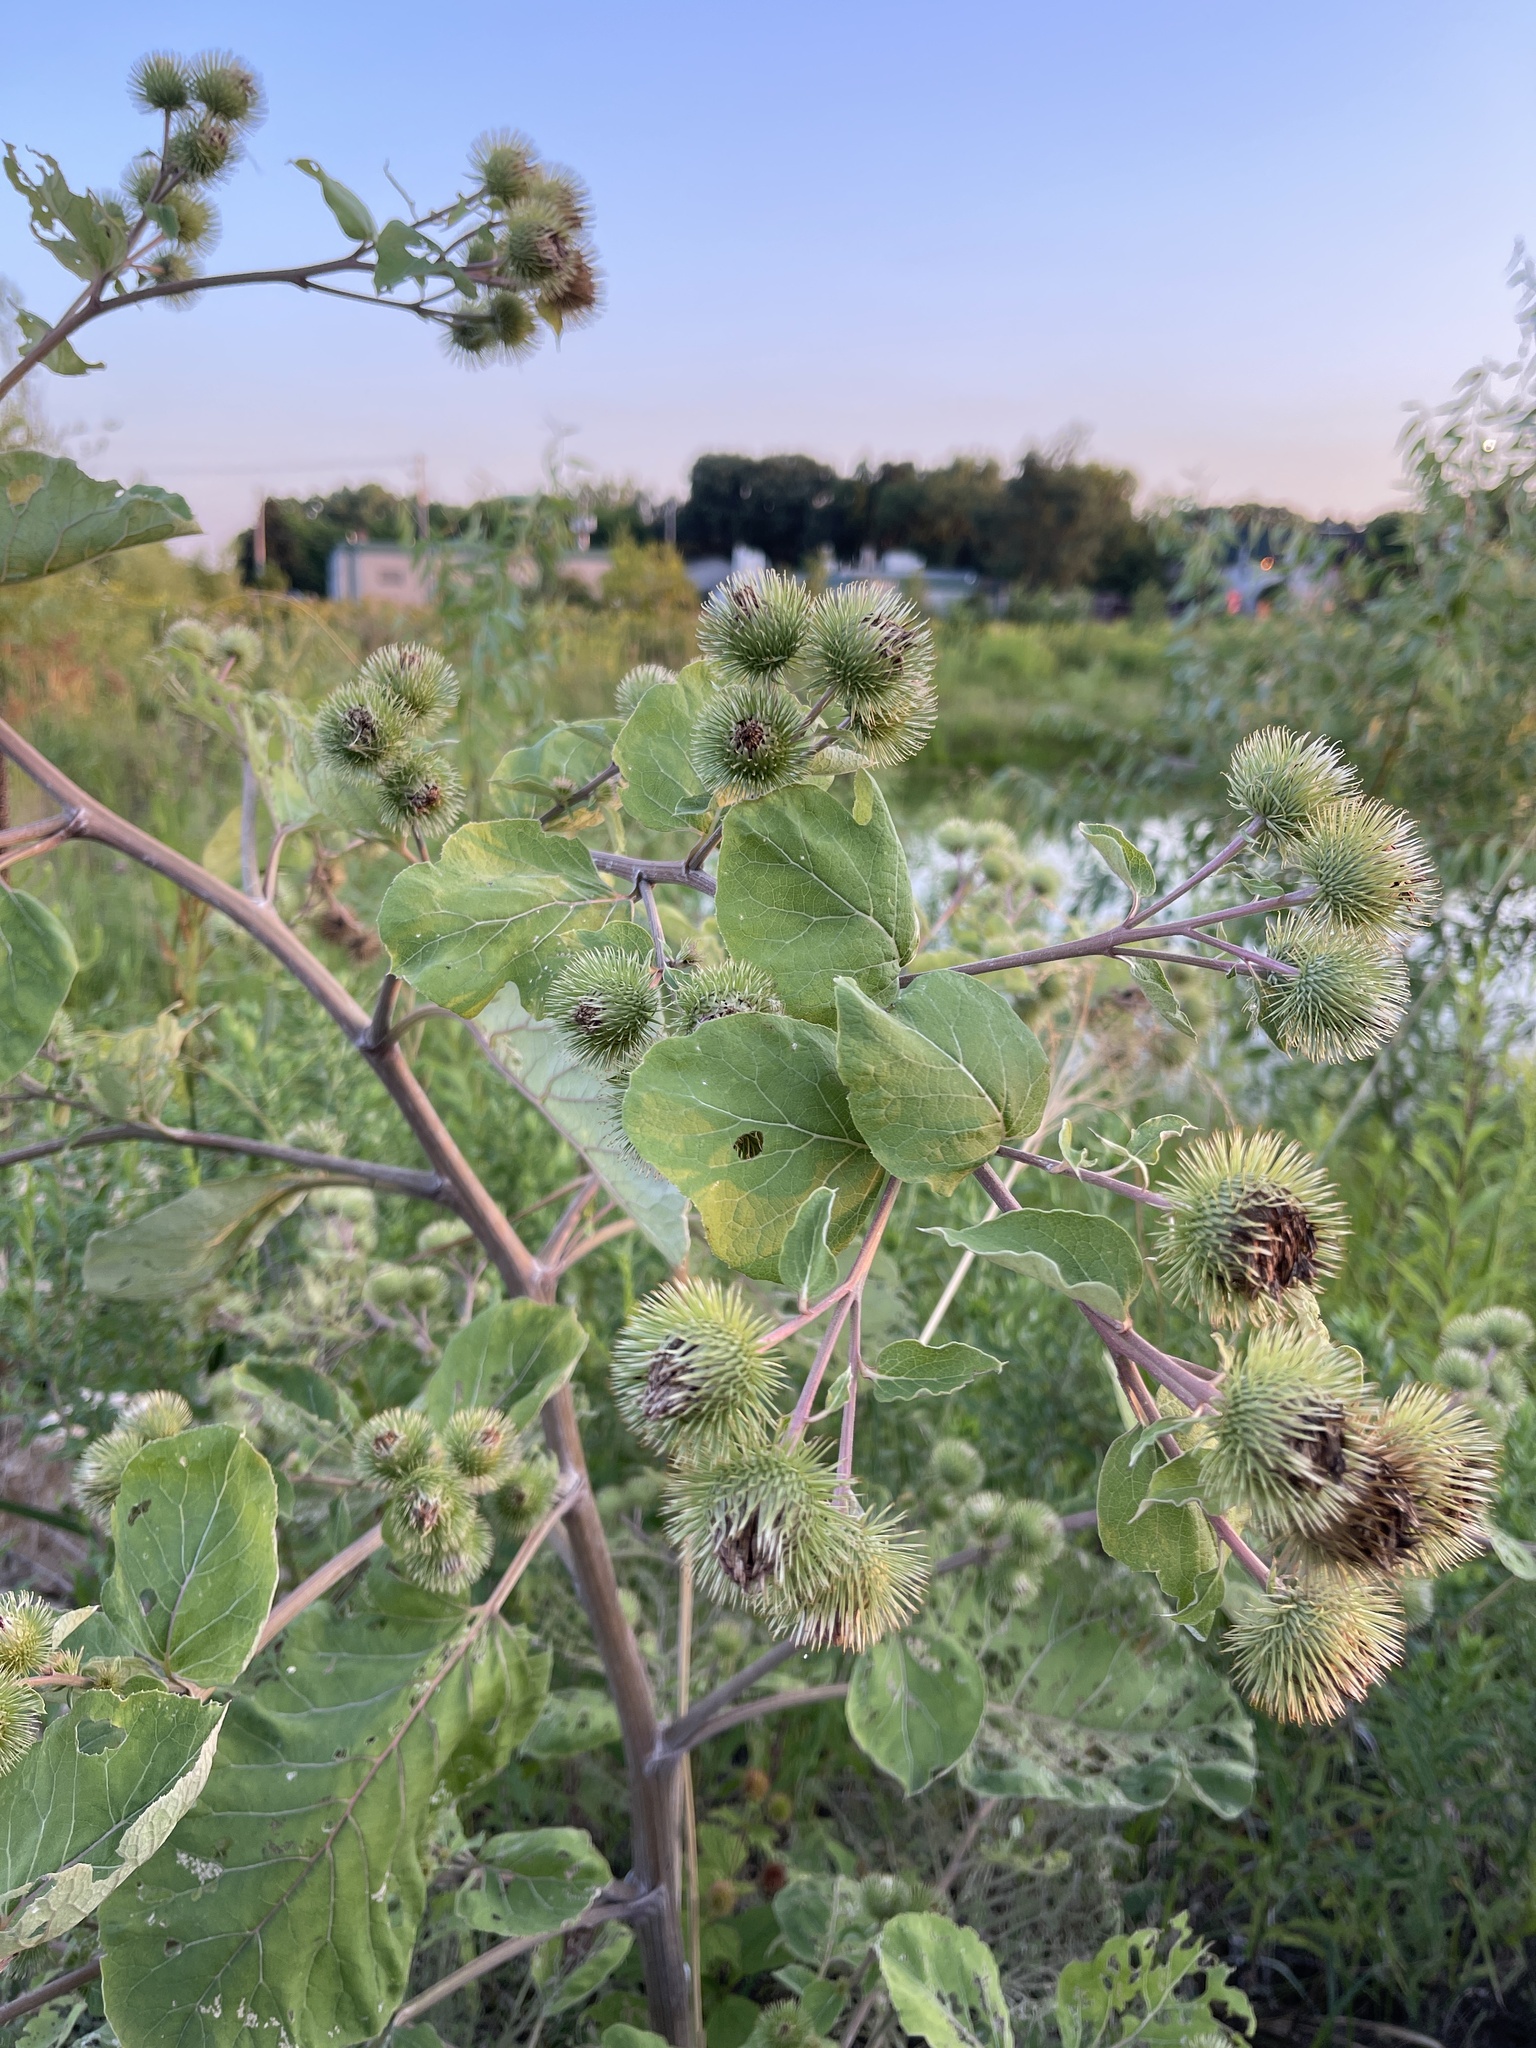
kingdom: Plantae
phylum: Tracheophyta
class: Magnoliopsida
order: Asterales
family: Asteraceae
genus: Arctium
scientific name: Arctium lappa
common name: Greater burdock
